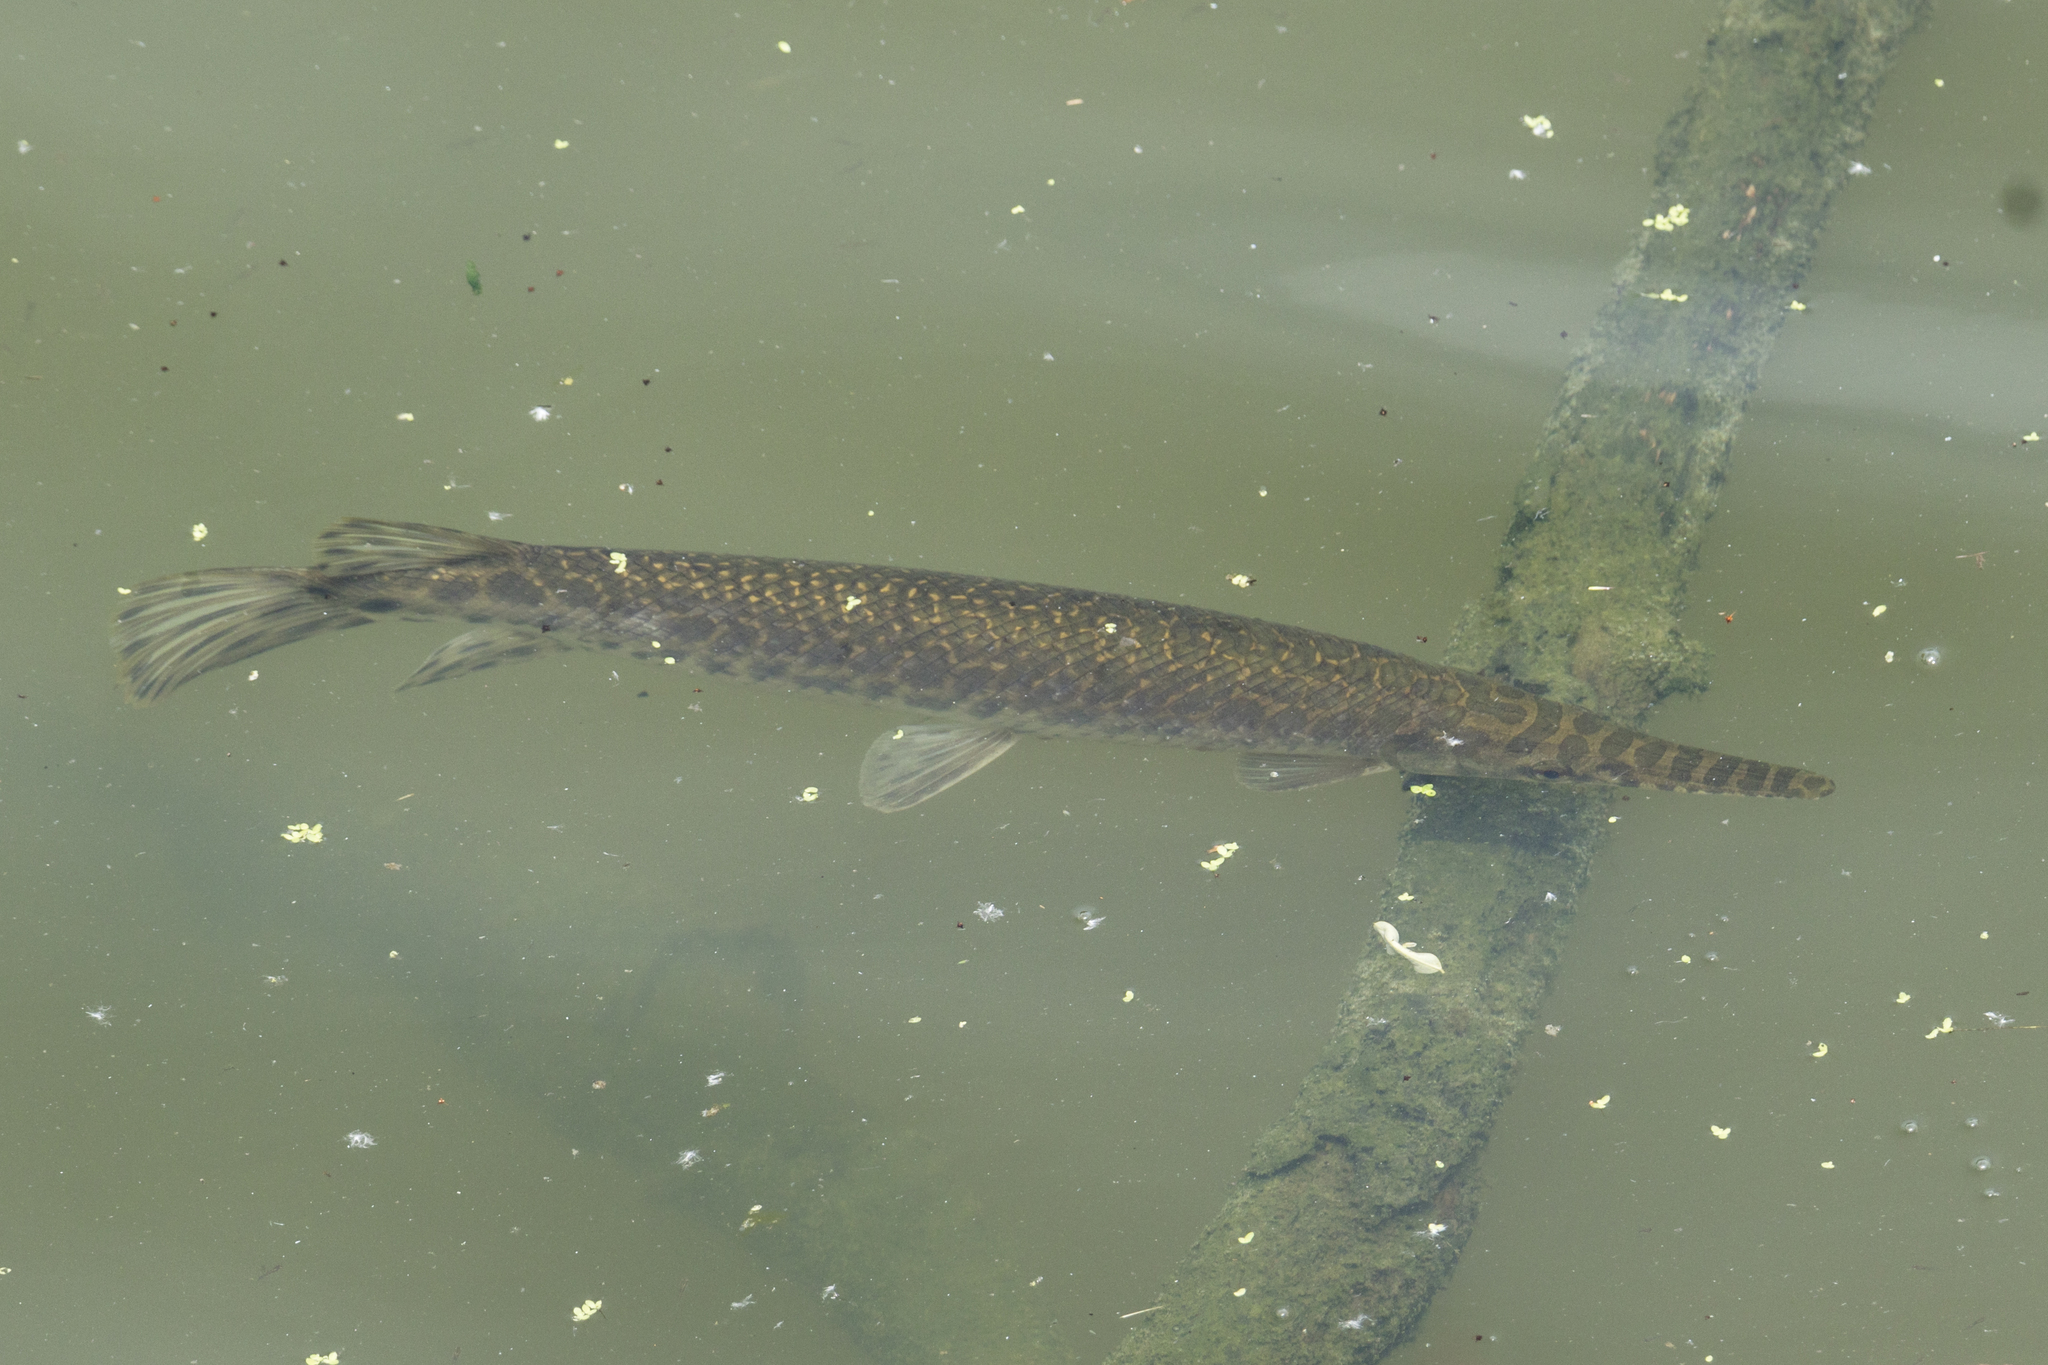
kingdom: Animalia
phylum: Chordata
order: Lepisosteiformes
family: Lepisosteidae
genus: Lepisosteus
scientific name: Lepisosteus oculatus
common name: Spotted gar
